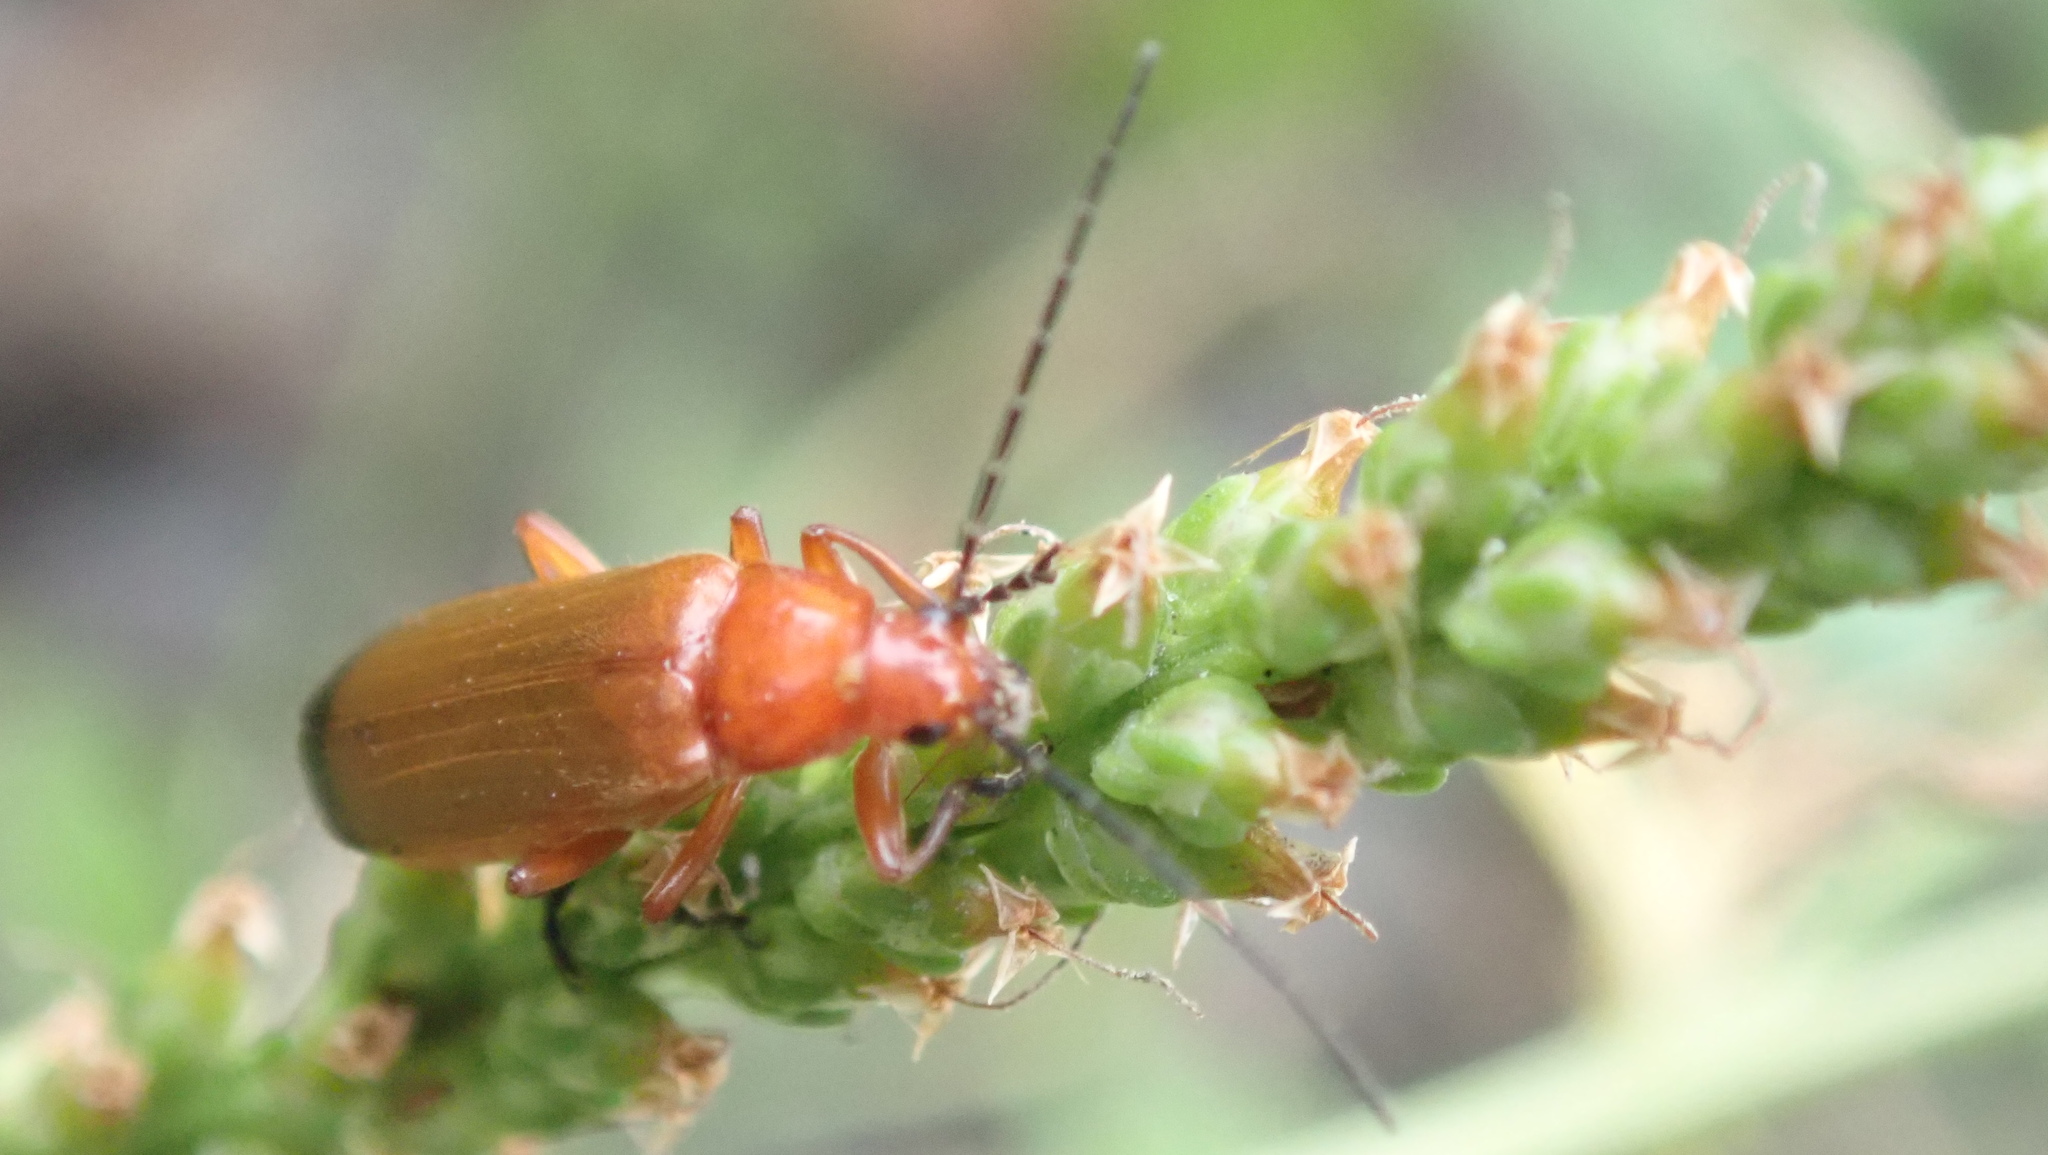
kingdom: Animalia
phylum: Arthropoda
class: Insecta
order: Coleoptera
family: Cantharidae
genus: Rhagonycha
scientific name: Rhagonycha fulva
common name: Common red soldier beetle
